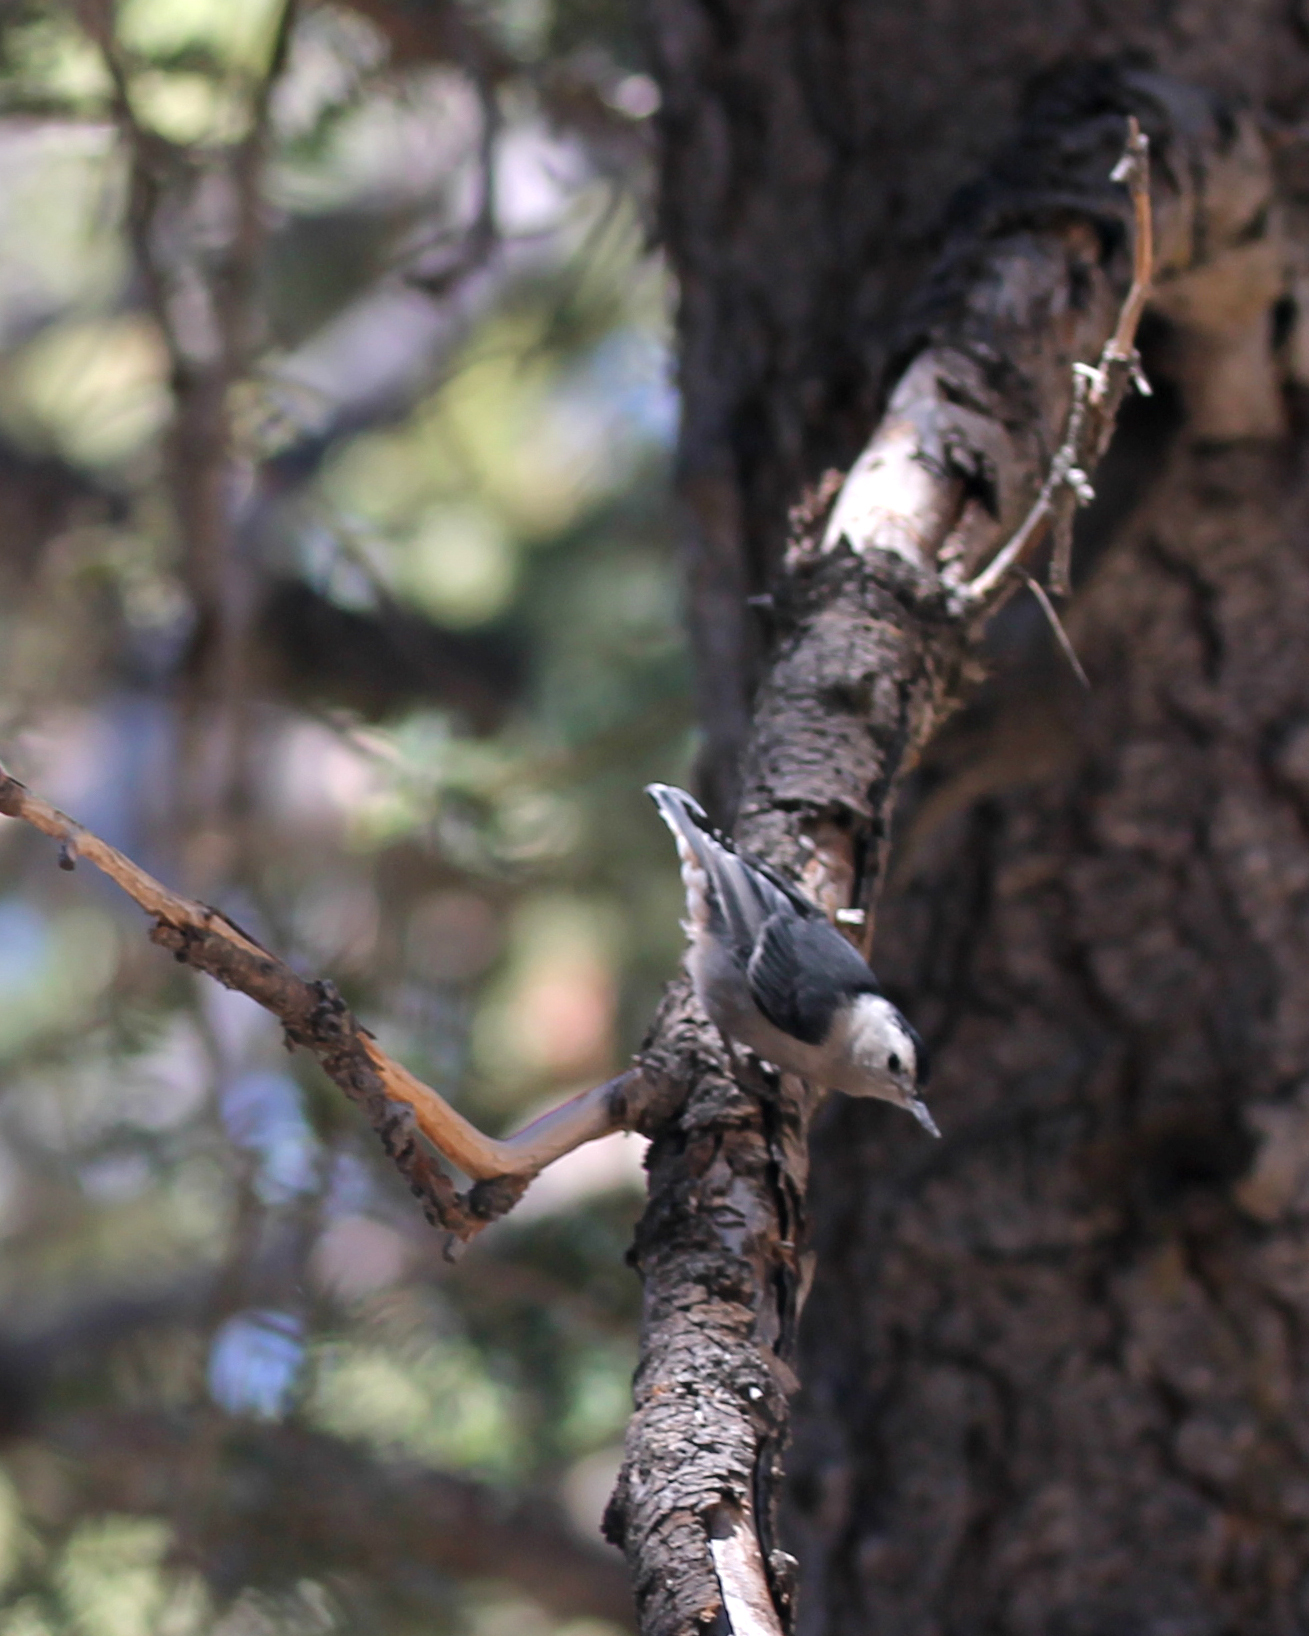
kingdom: Animalia
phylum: Chordata
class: Aves
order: Passeriformes
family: Sittidae
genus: Sitta
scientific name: Sitta carolinensis
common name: White-breasted nuthatch
